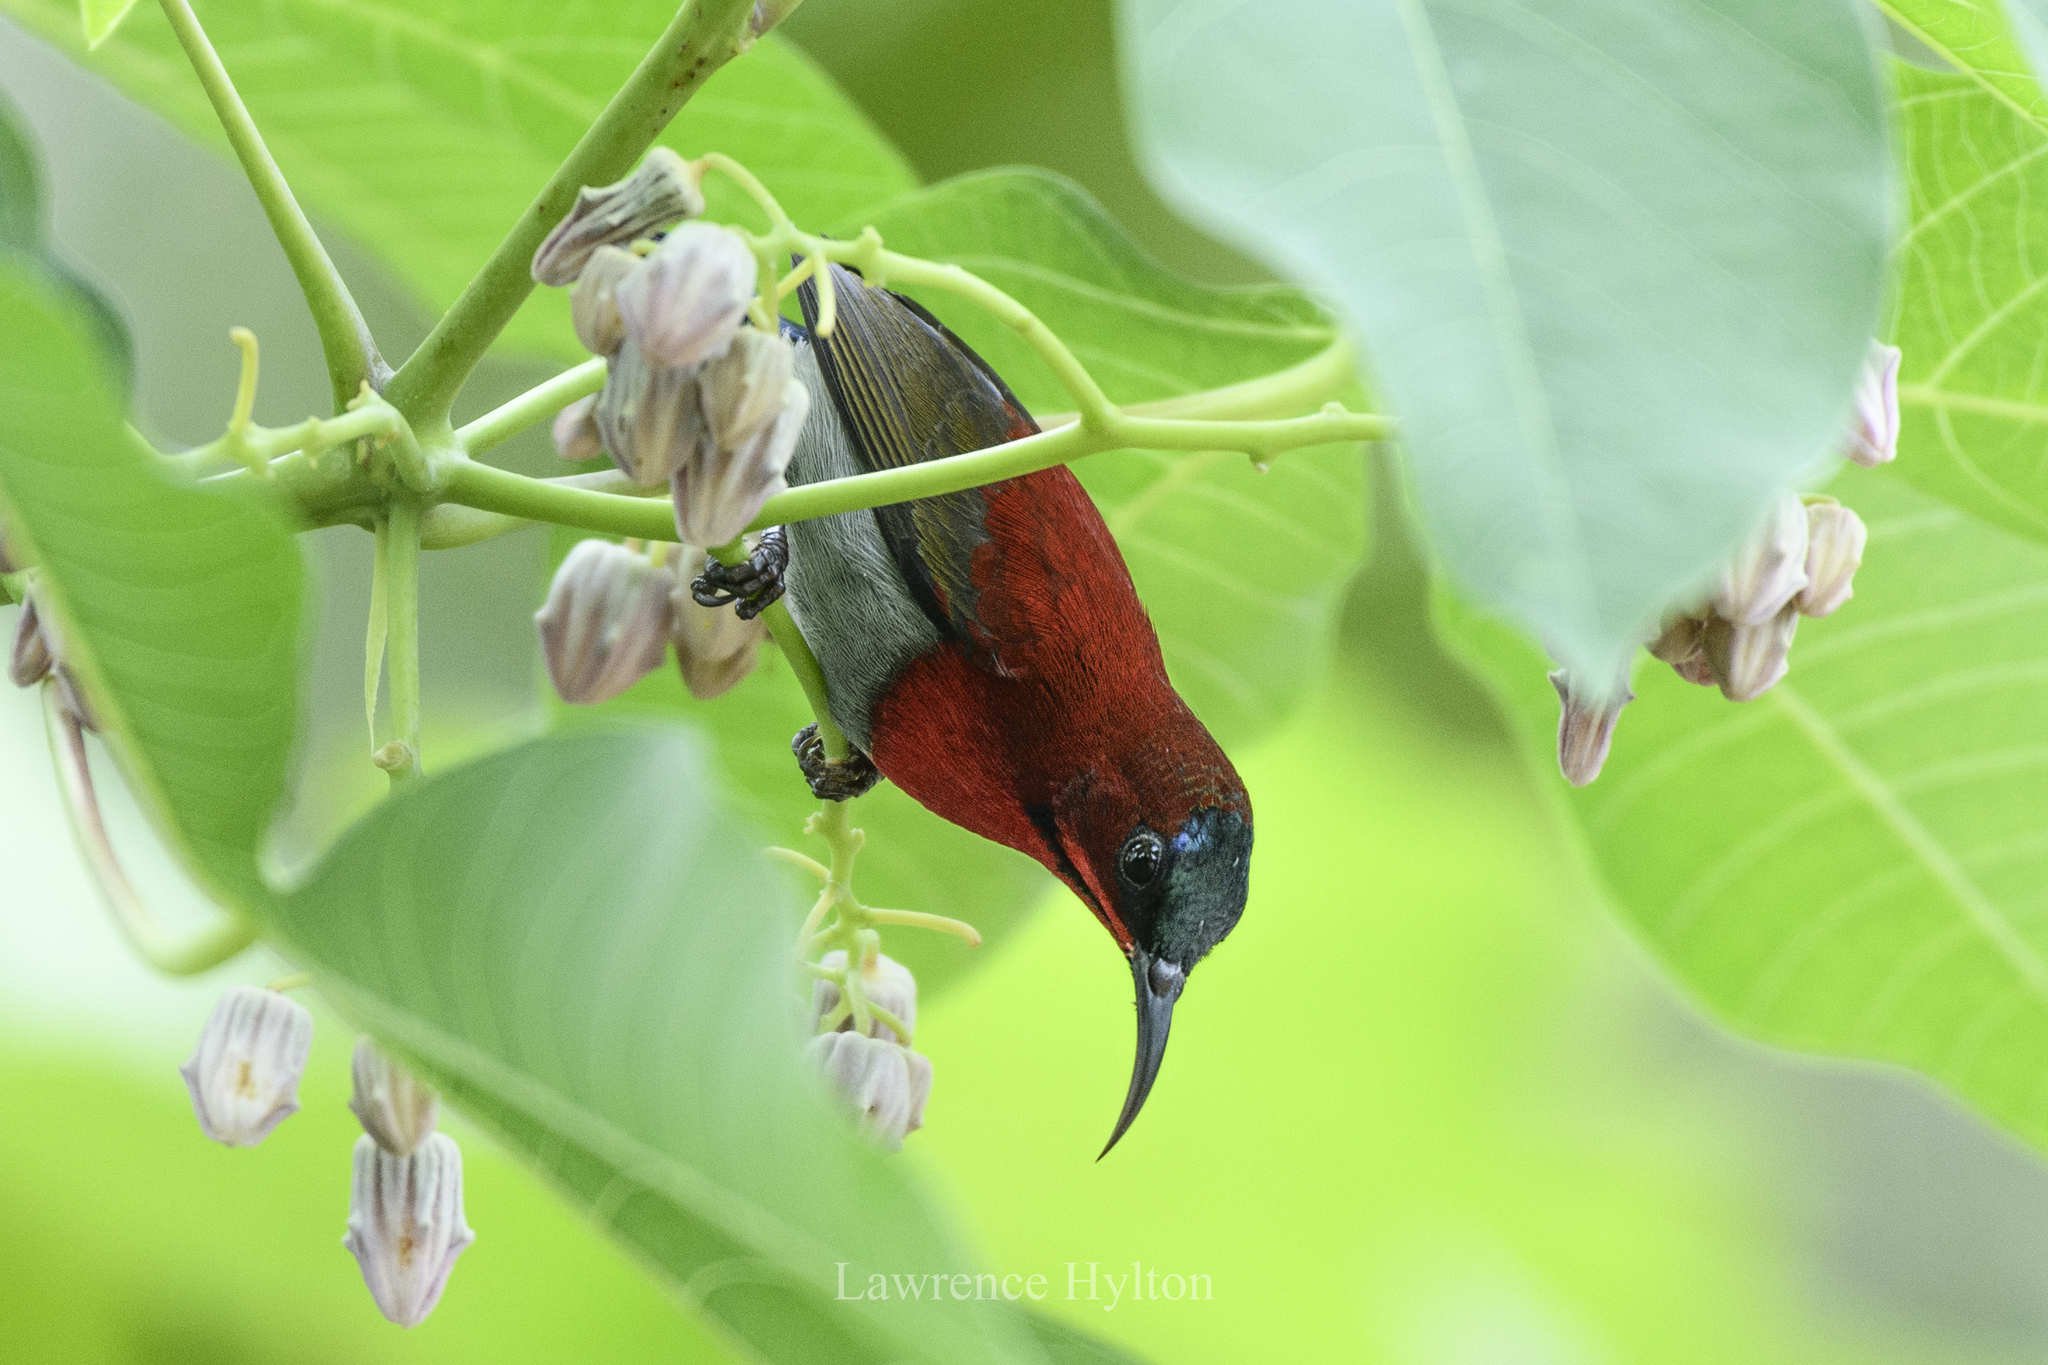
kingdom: Animalia
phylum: Chordata
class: Aves
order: Passeriformes
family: Nectariniidae
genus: Aethopyga
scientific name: Aethopyga siparaja
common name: Crimson sunbird
